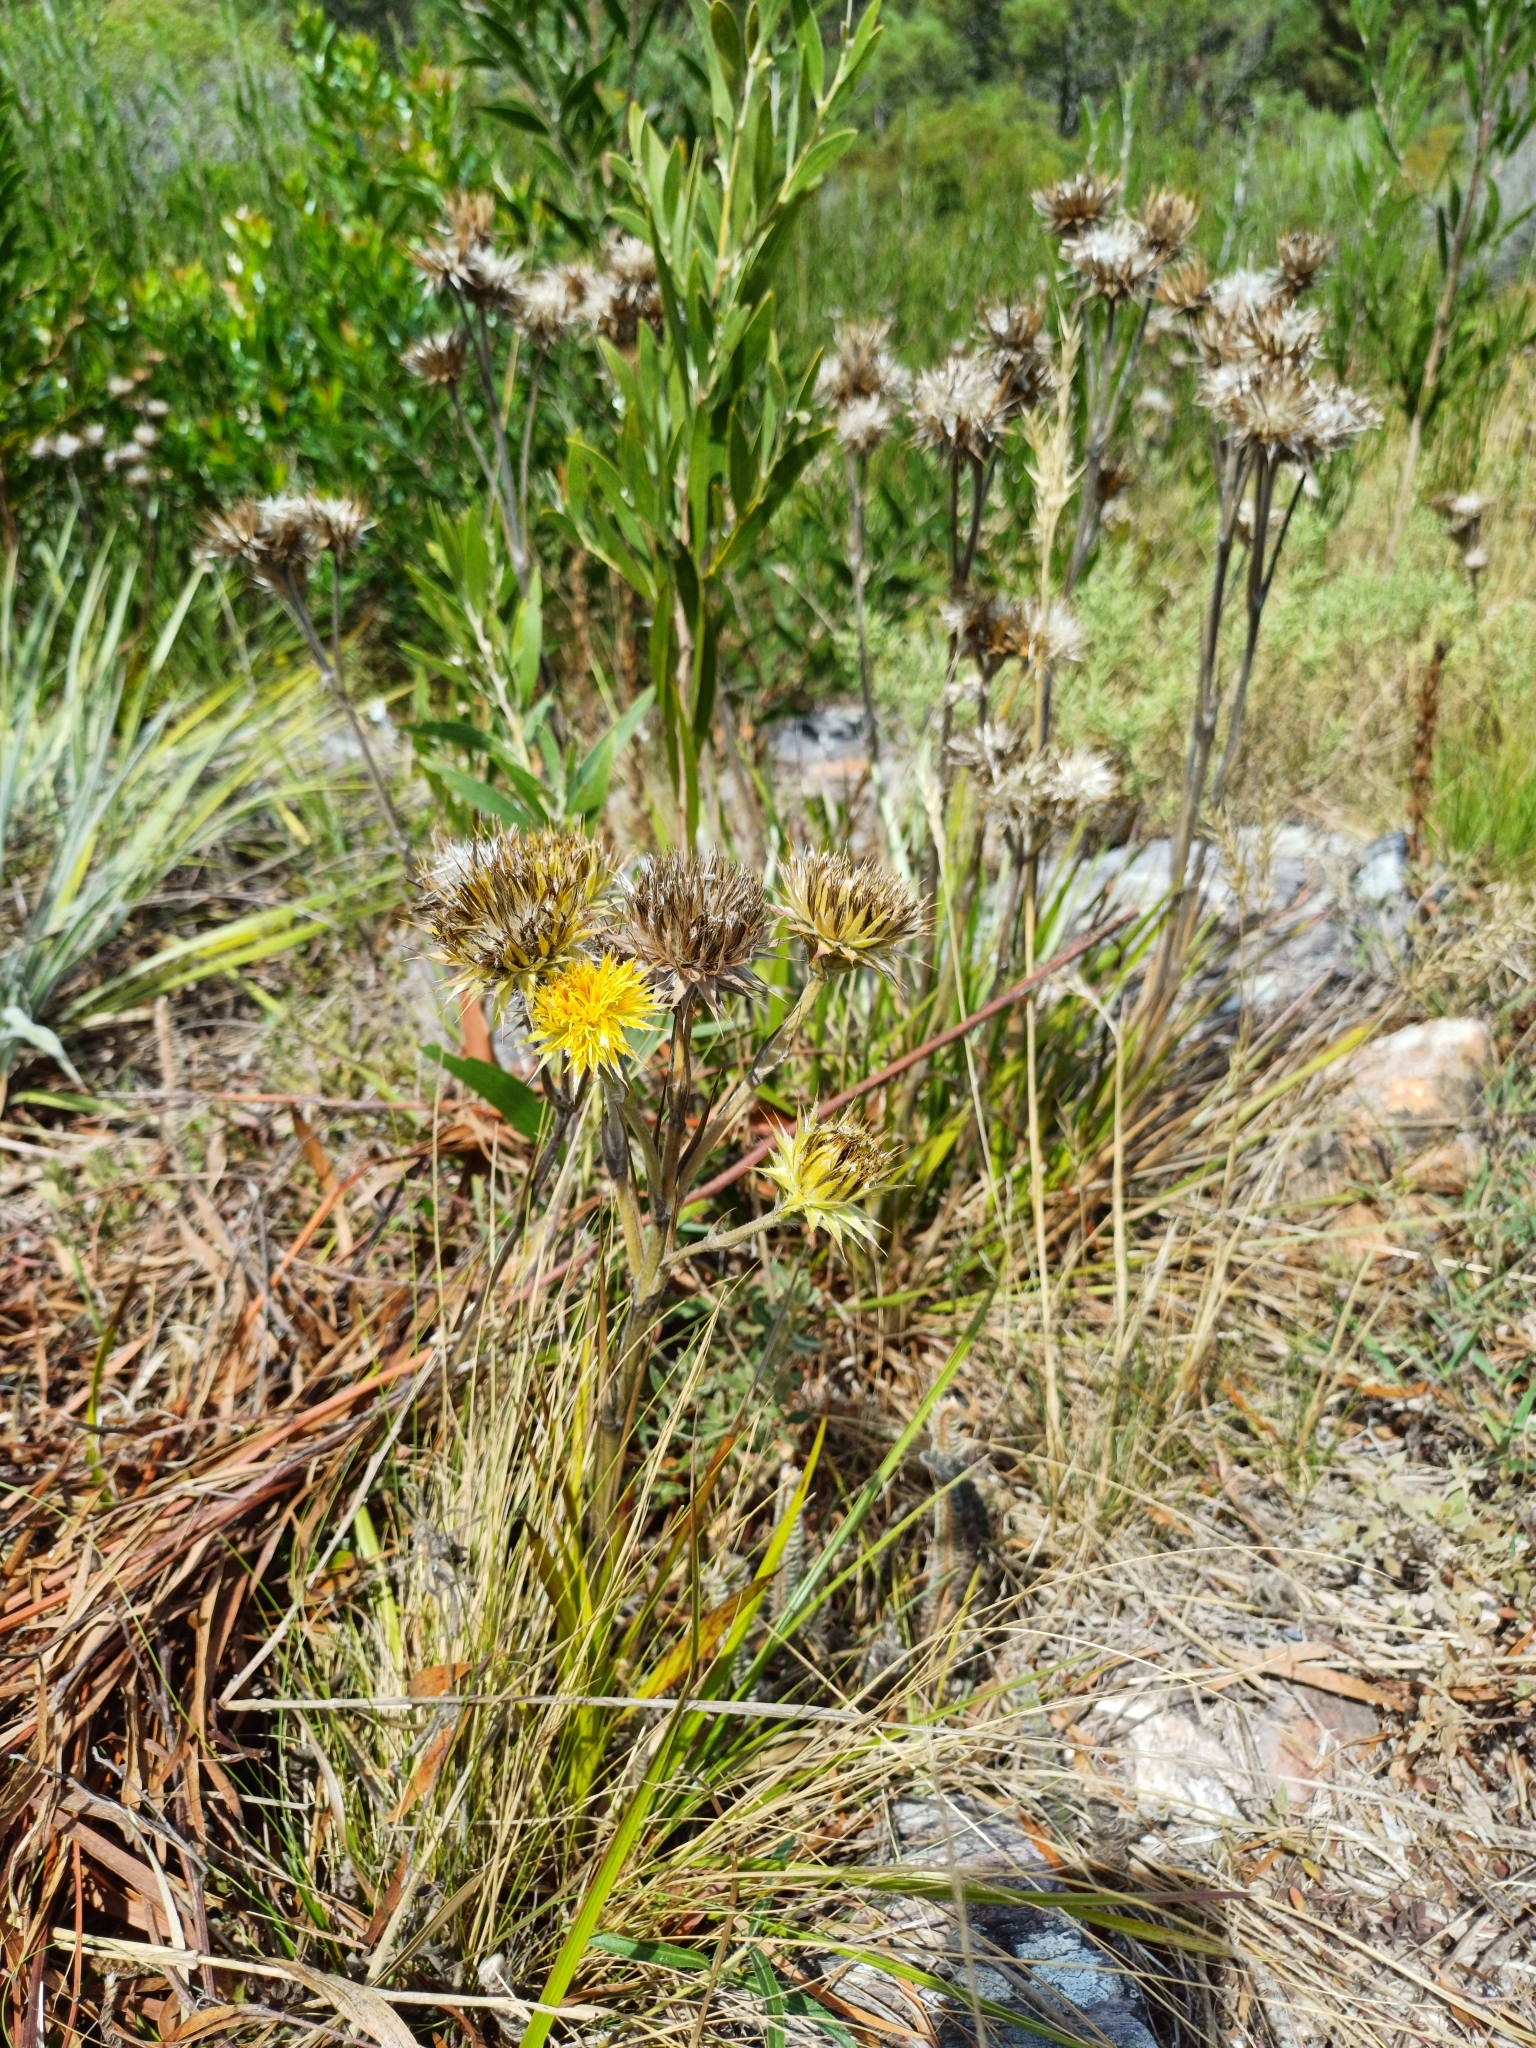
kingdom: Plantae
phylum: Tracheophyta
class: Magnoliopsida
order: Asterales
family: Asteraceae
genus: Schlechtendalia
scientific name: Schlechtendalia luzulifolia
